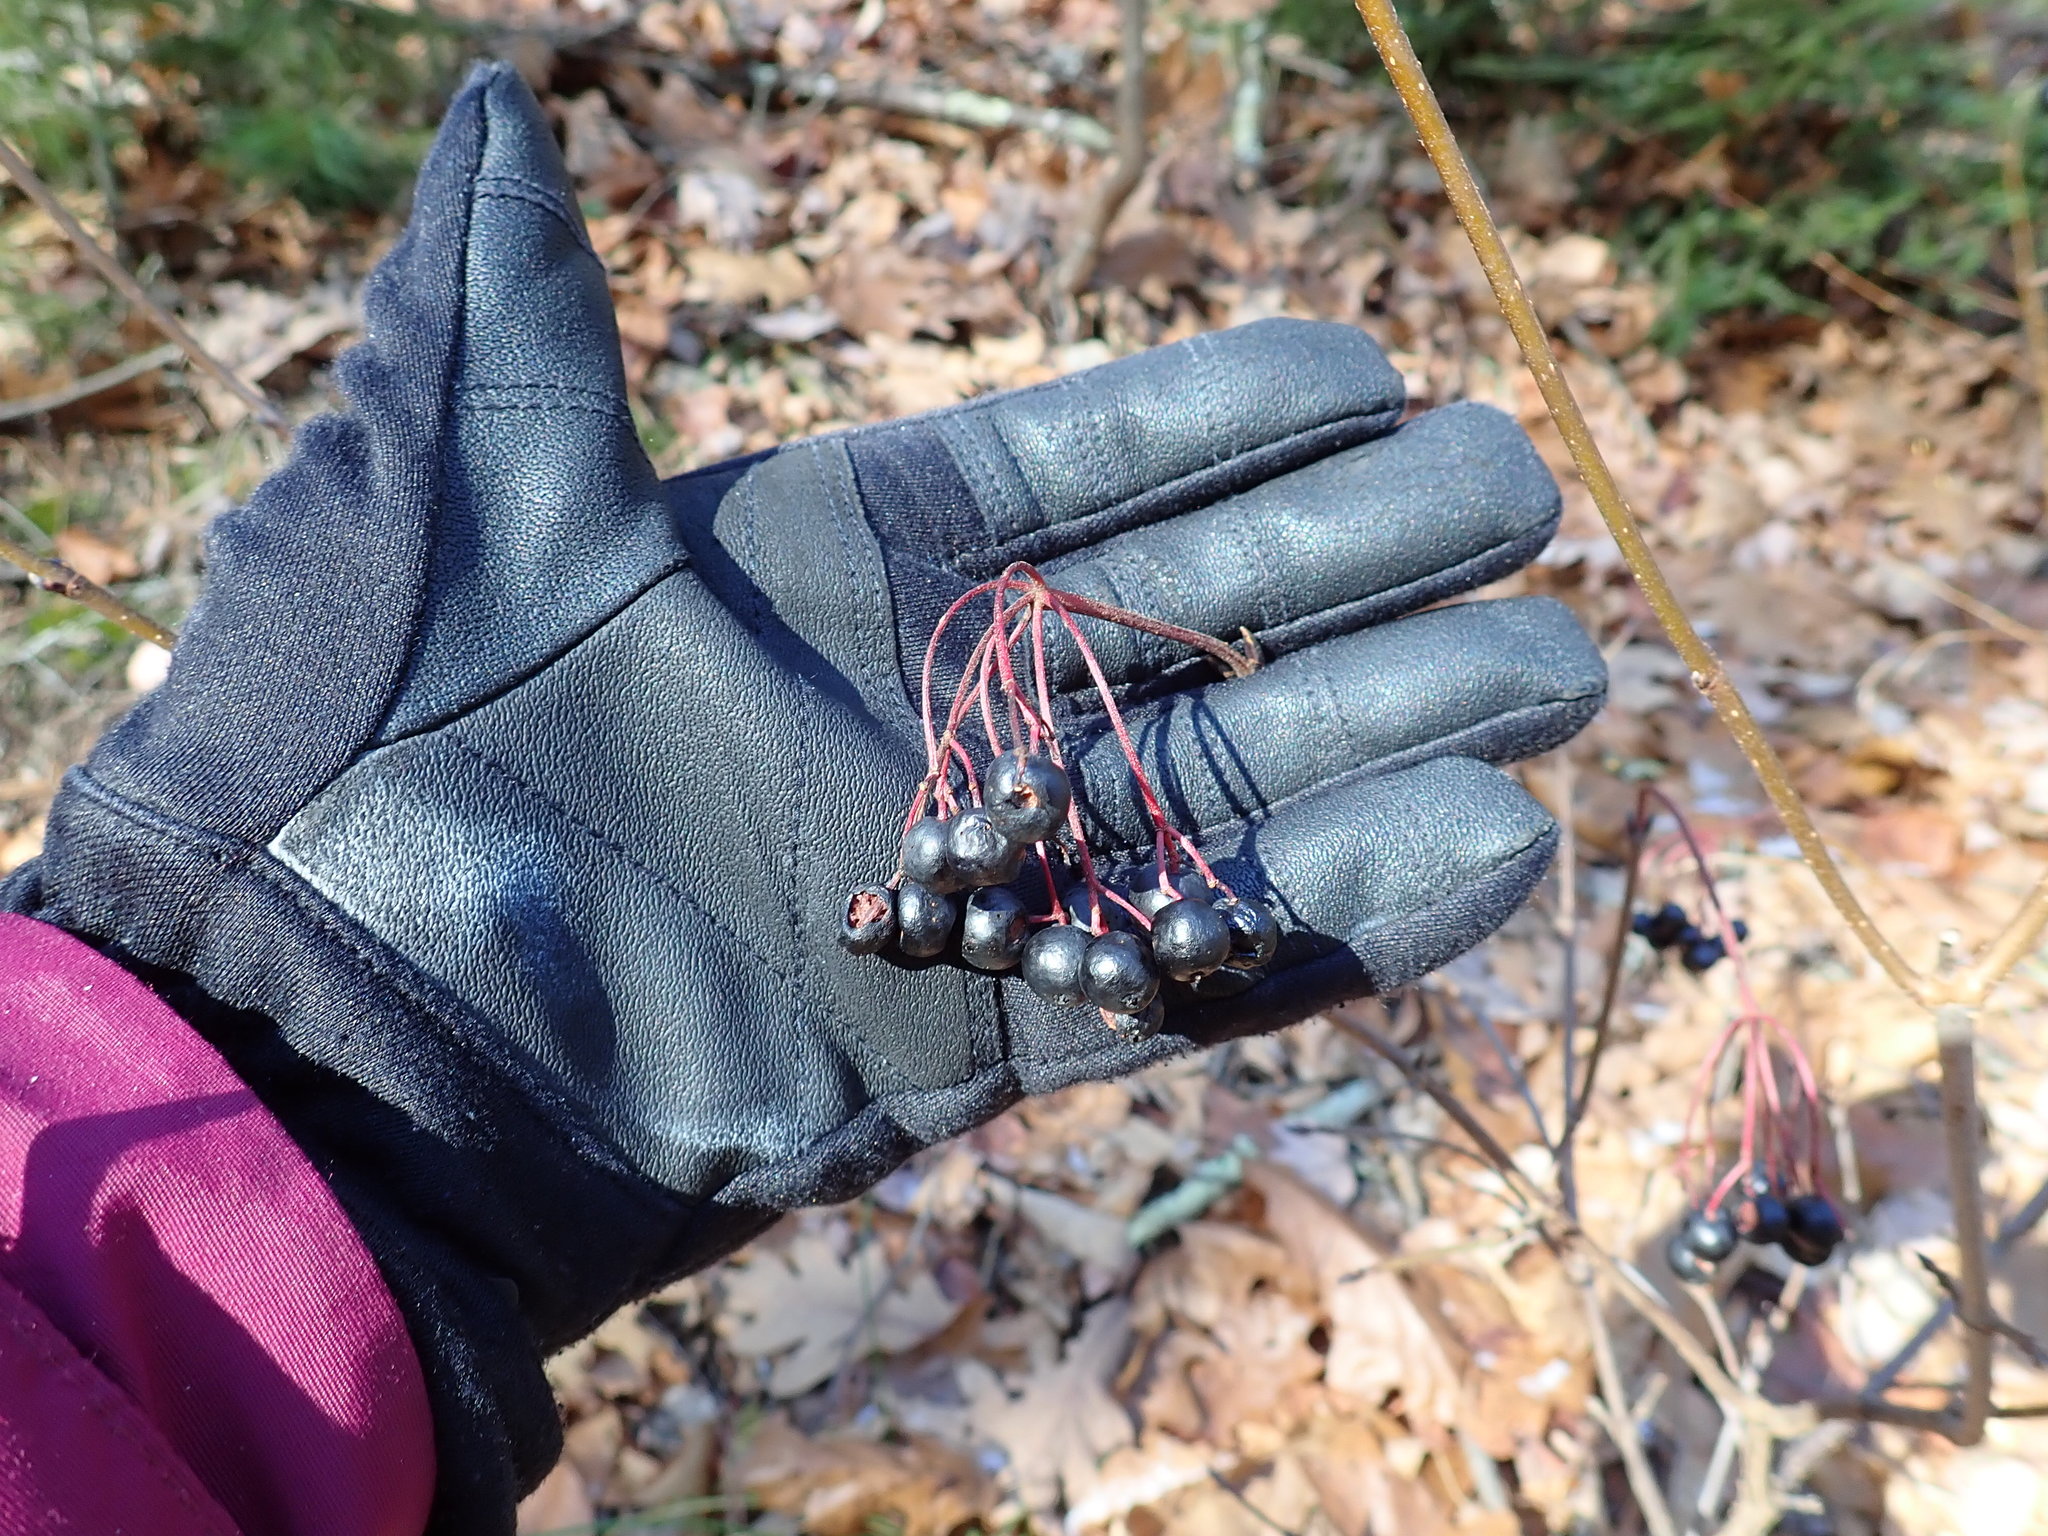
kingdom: Plantae
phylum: Tracheophyta
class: Magnoliopsida
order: Dipsacales
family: Viburnaceae
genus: Viburnum
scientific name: Viburnum lentago
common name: Black haw
